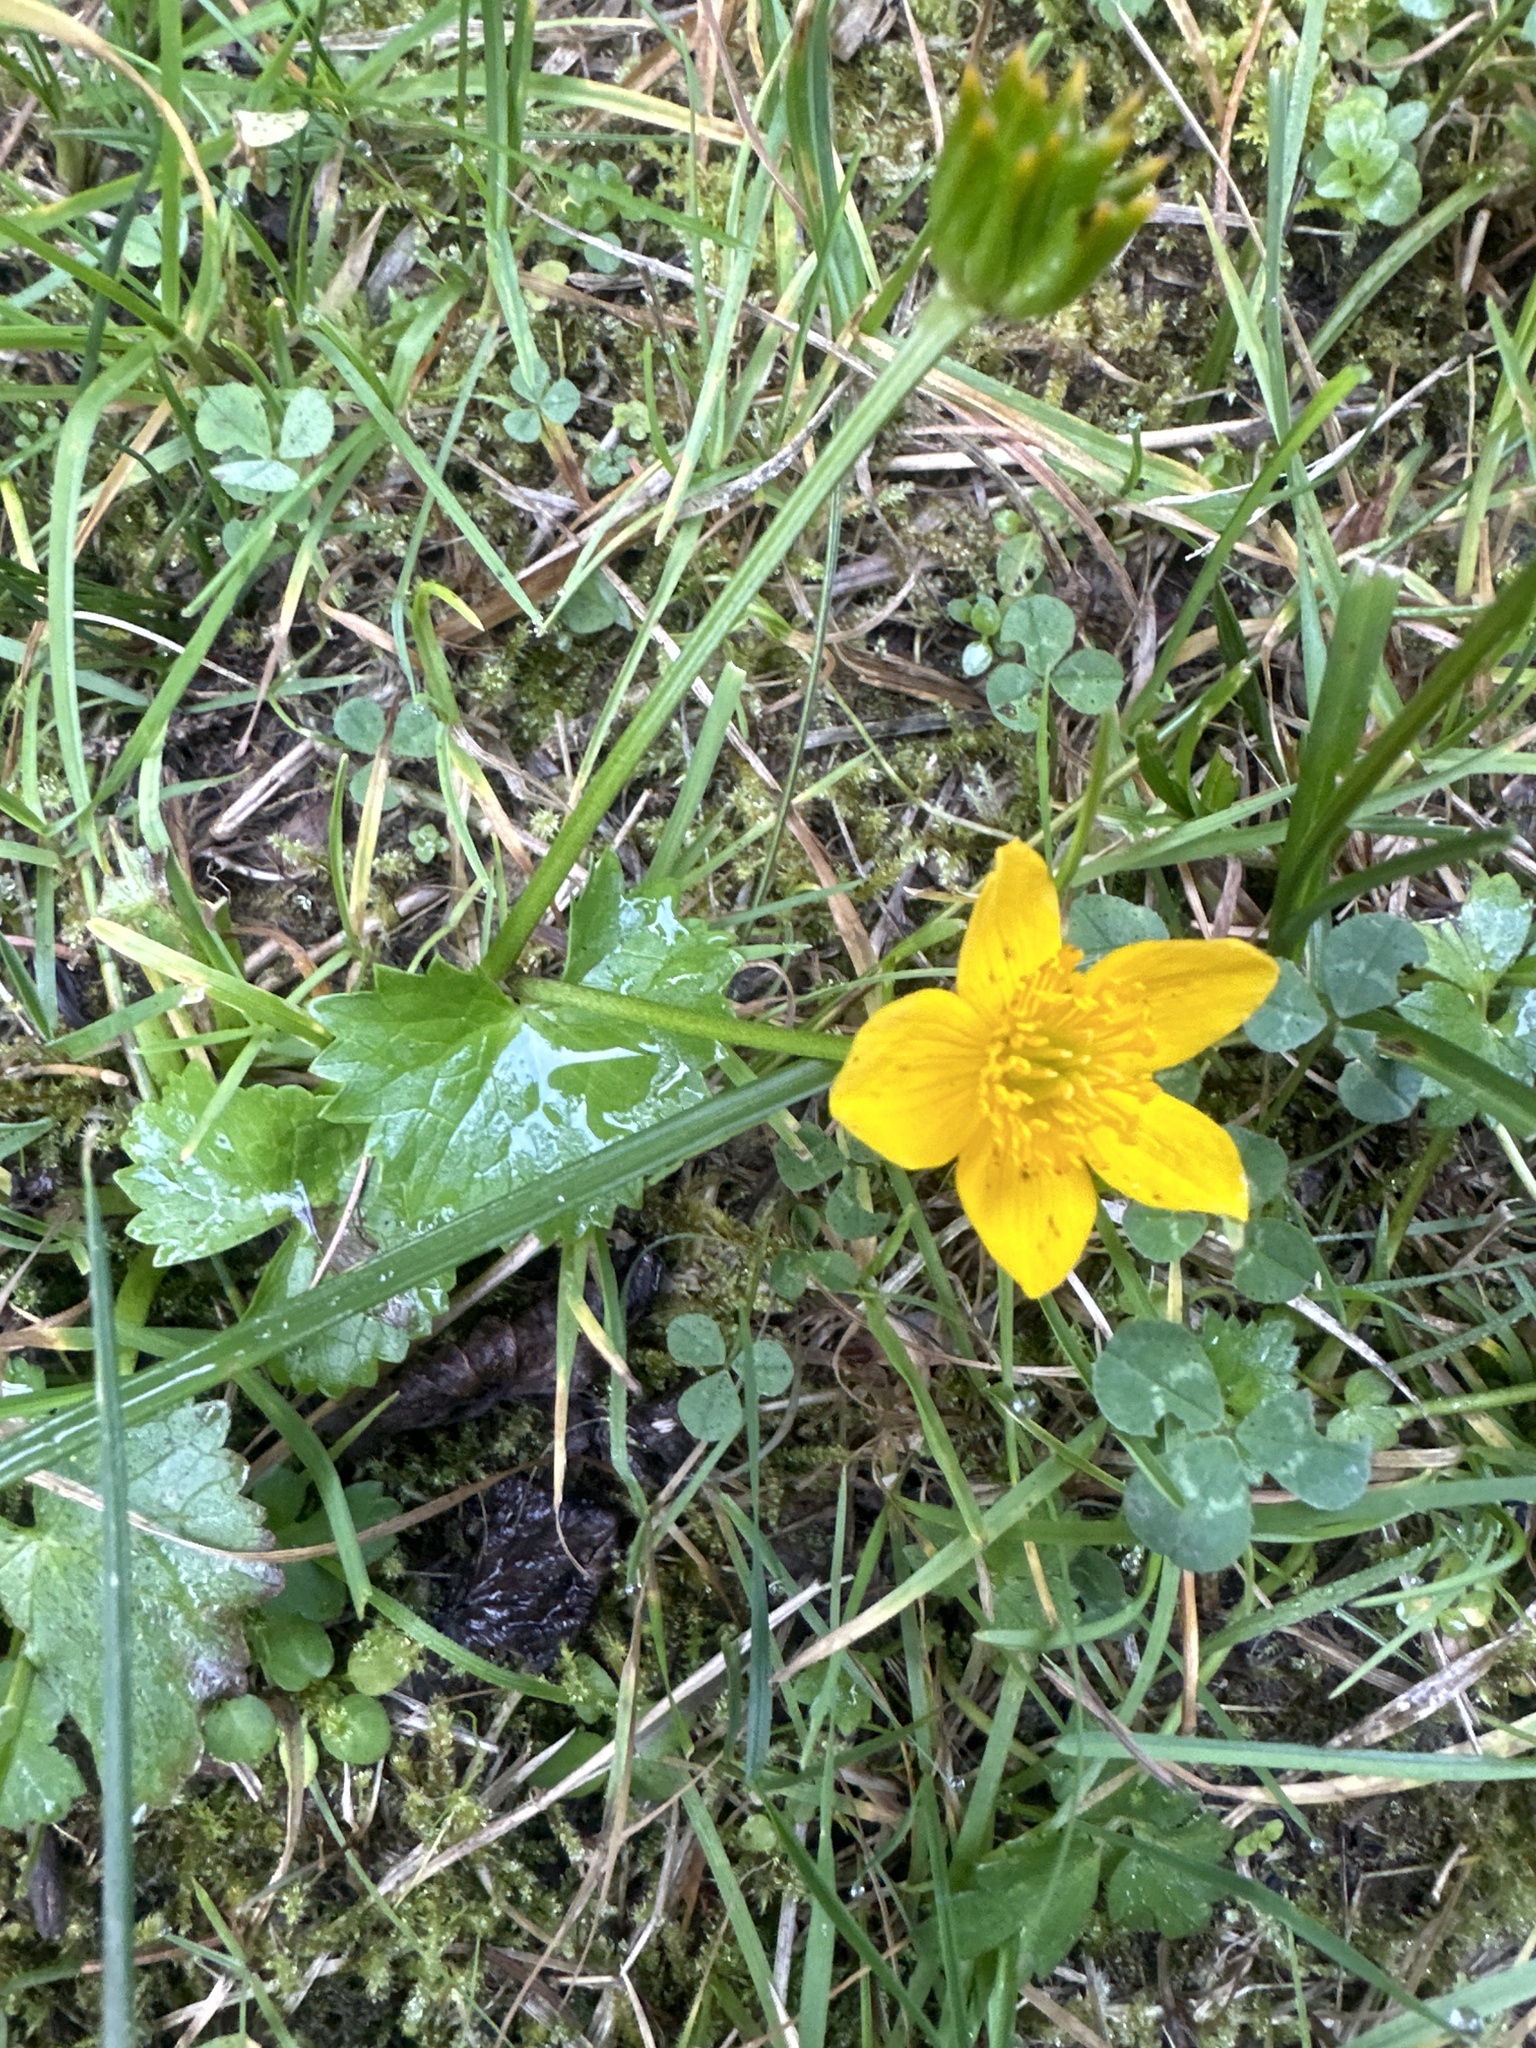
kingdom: Plantae
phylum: Tracheophyta
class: Magnoliopsida
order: Ranunculales
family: Ranunculaceae
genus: Caltha
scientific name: Caltha palustris
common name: Marsh marigold
